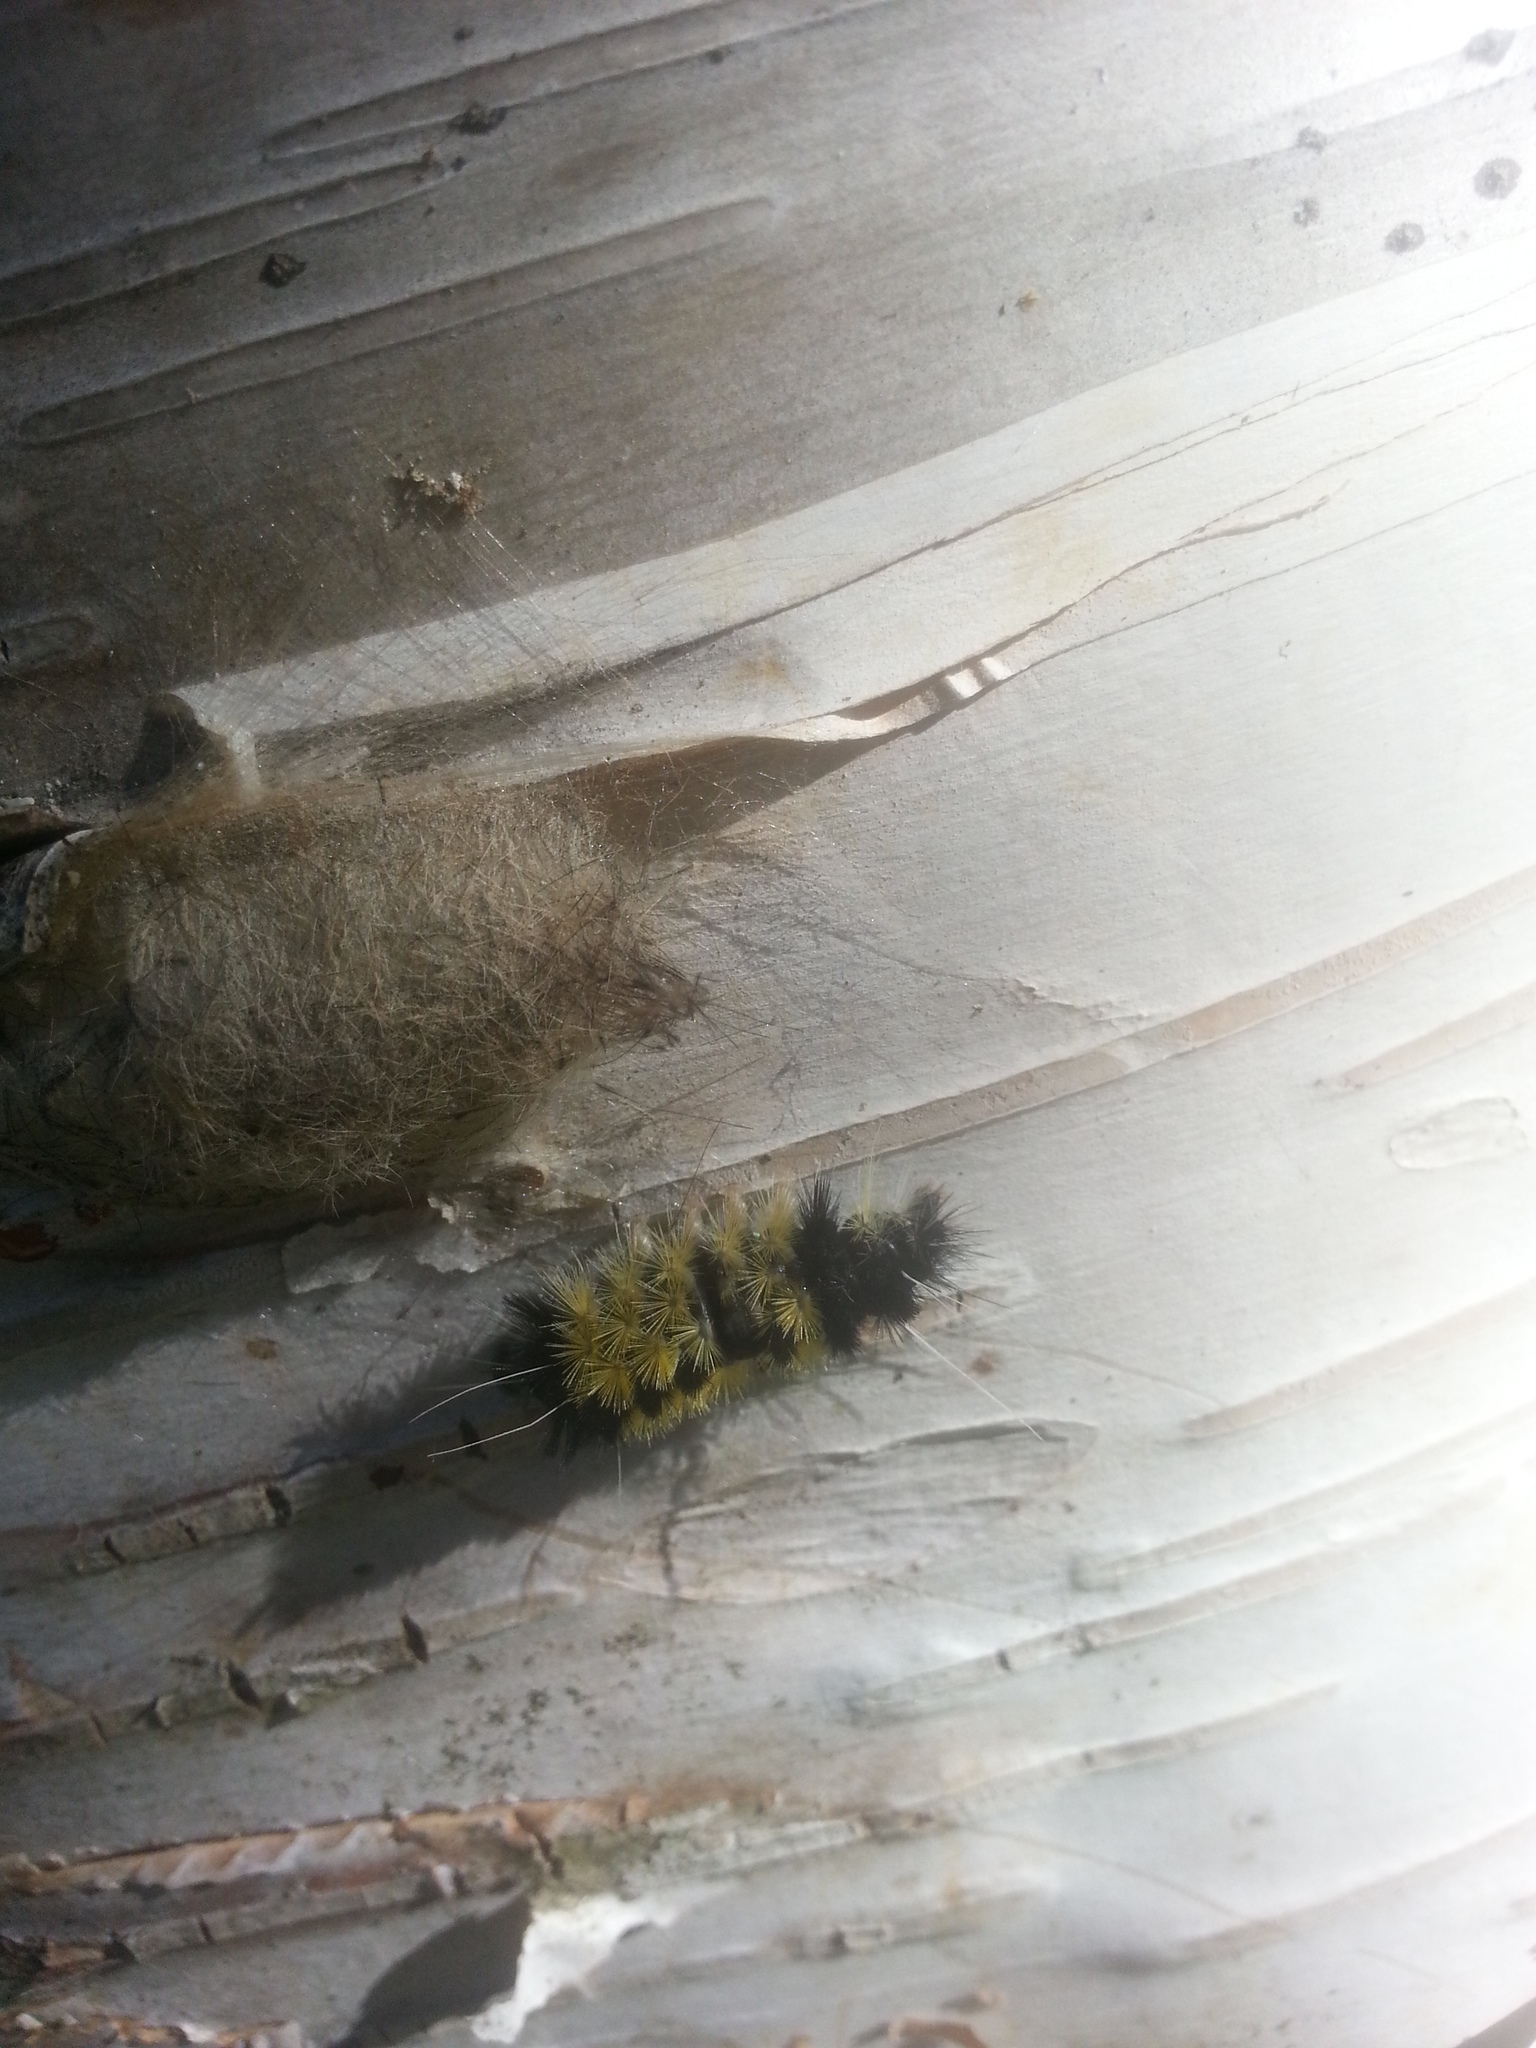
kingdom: Animalia
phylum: Arthropoda
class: Insecta
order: Lepidoptera
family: Erebidae
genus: Lophocampa
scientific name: Lophocampa maculata
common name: Spotted tussock moth
